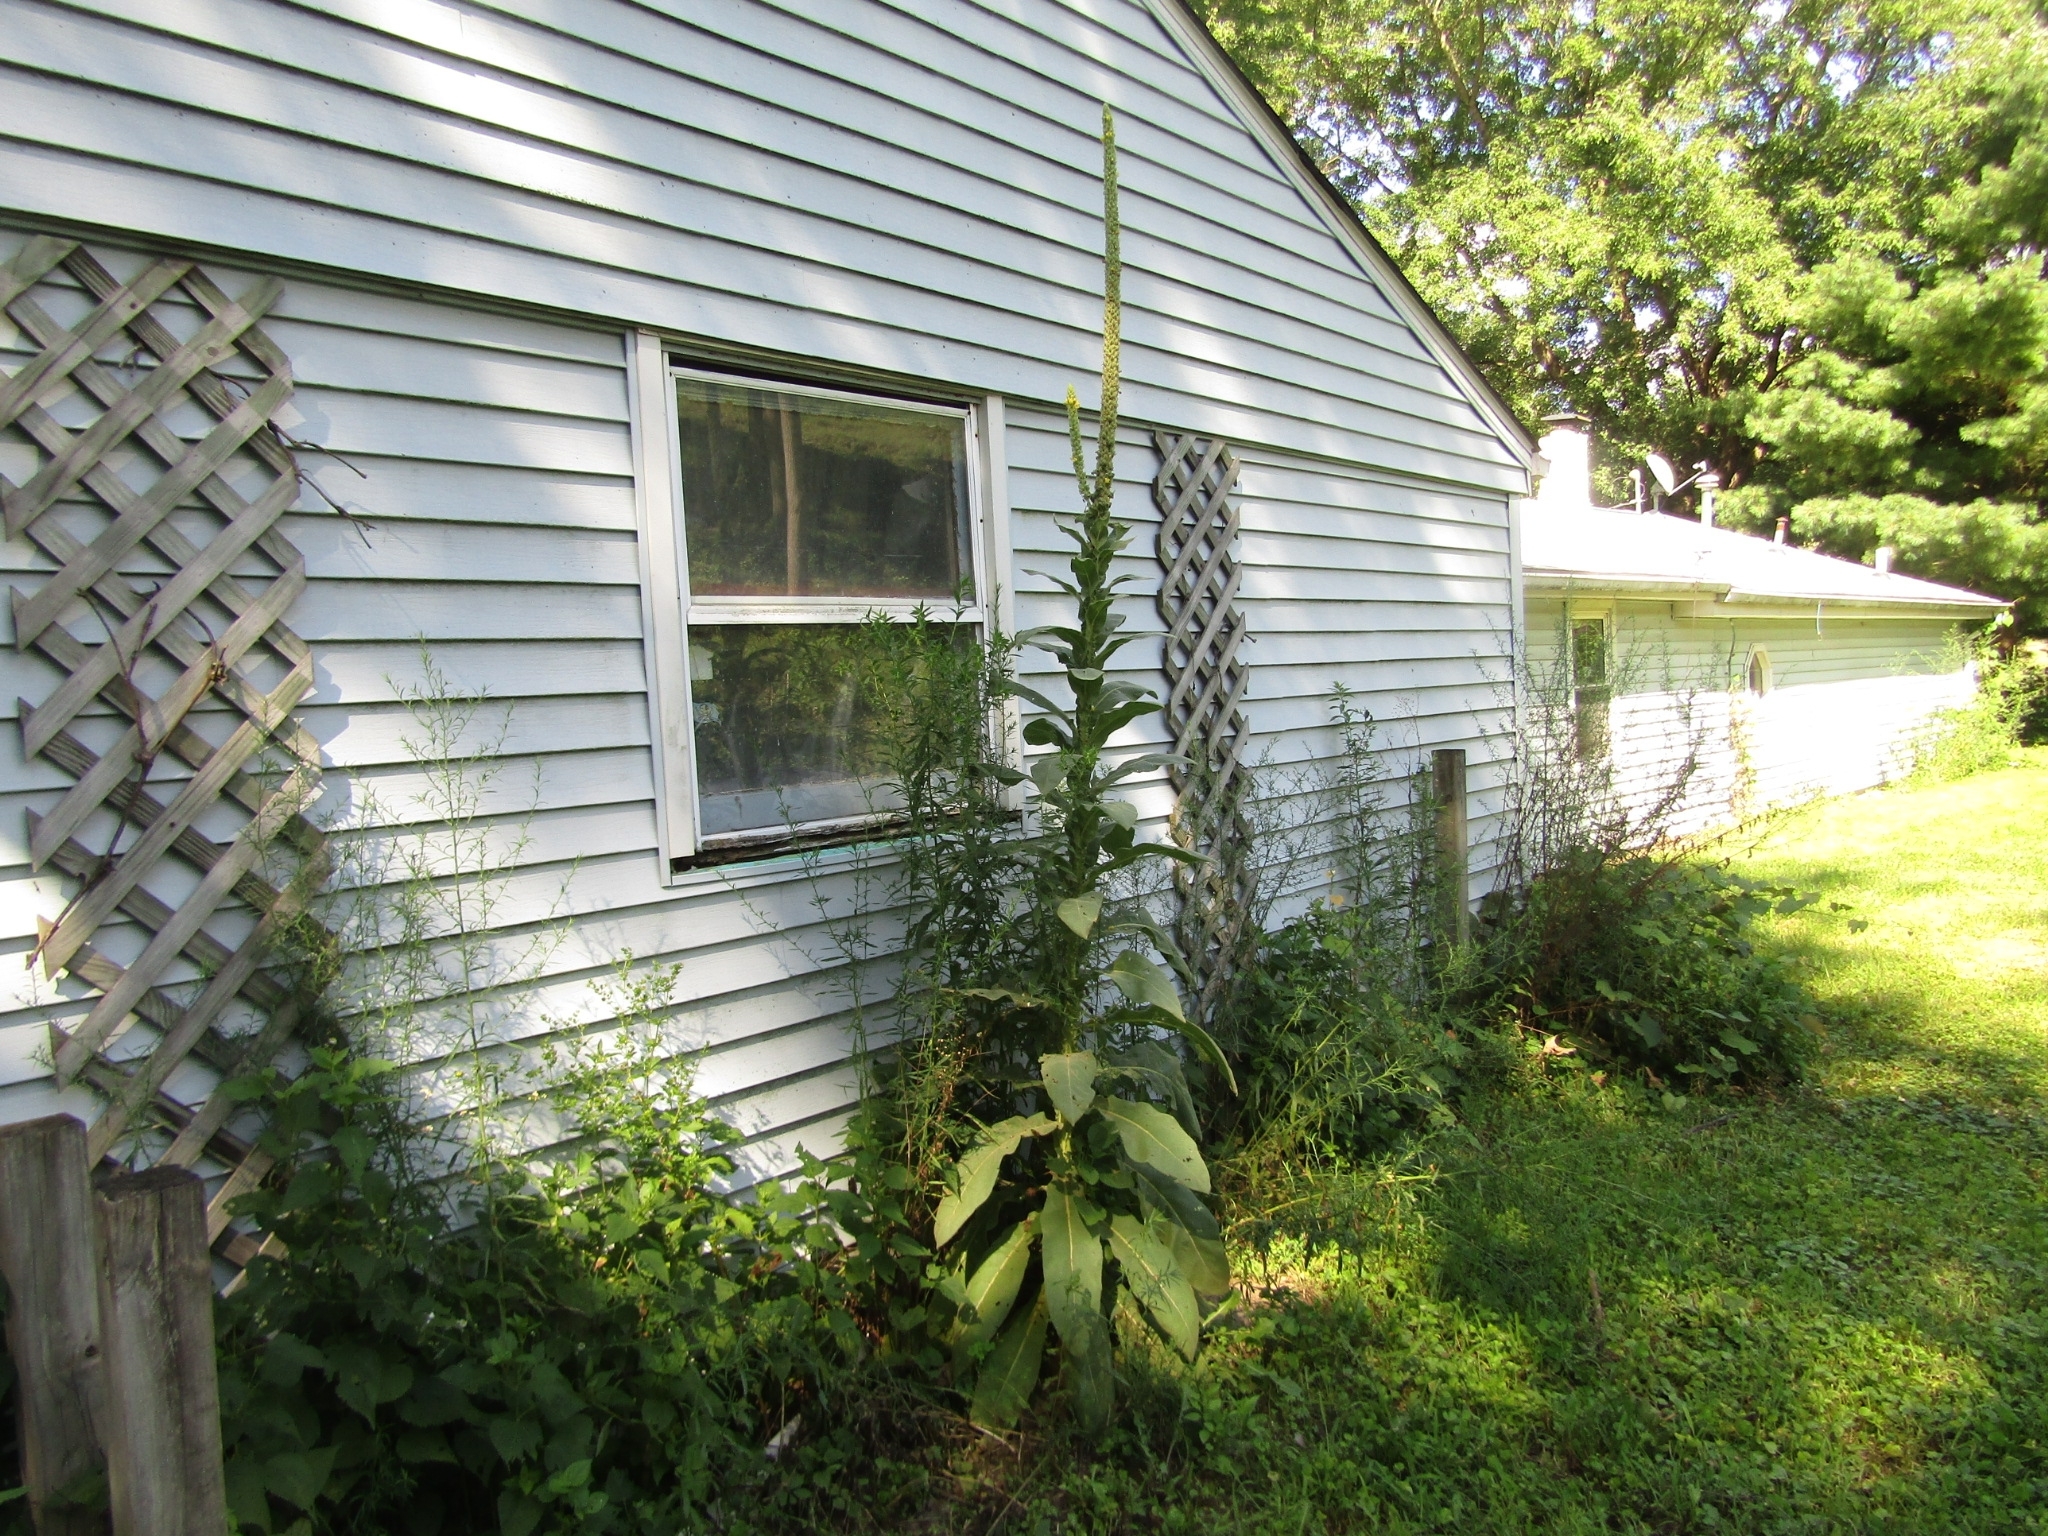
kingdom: Plantae
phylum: Tracheophyta
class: Magnoliopsida
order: Lamiales
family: Scrophulariaceae
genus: Verbascum
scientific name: Verbascum thapsus
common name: Common mullein
